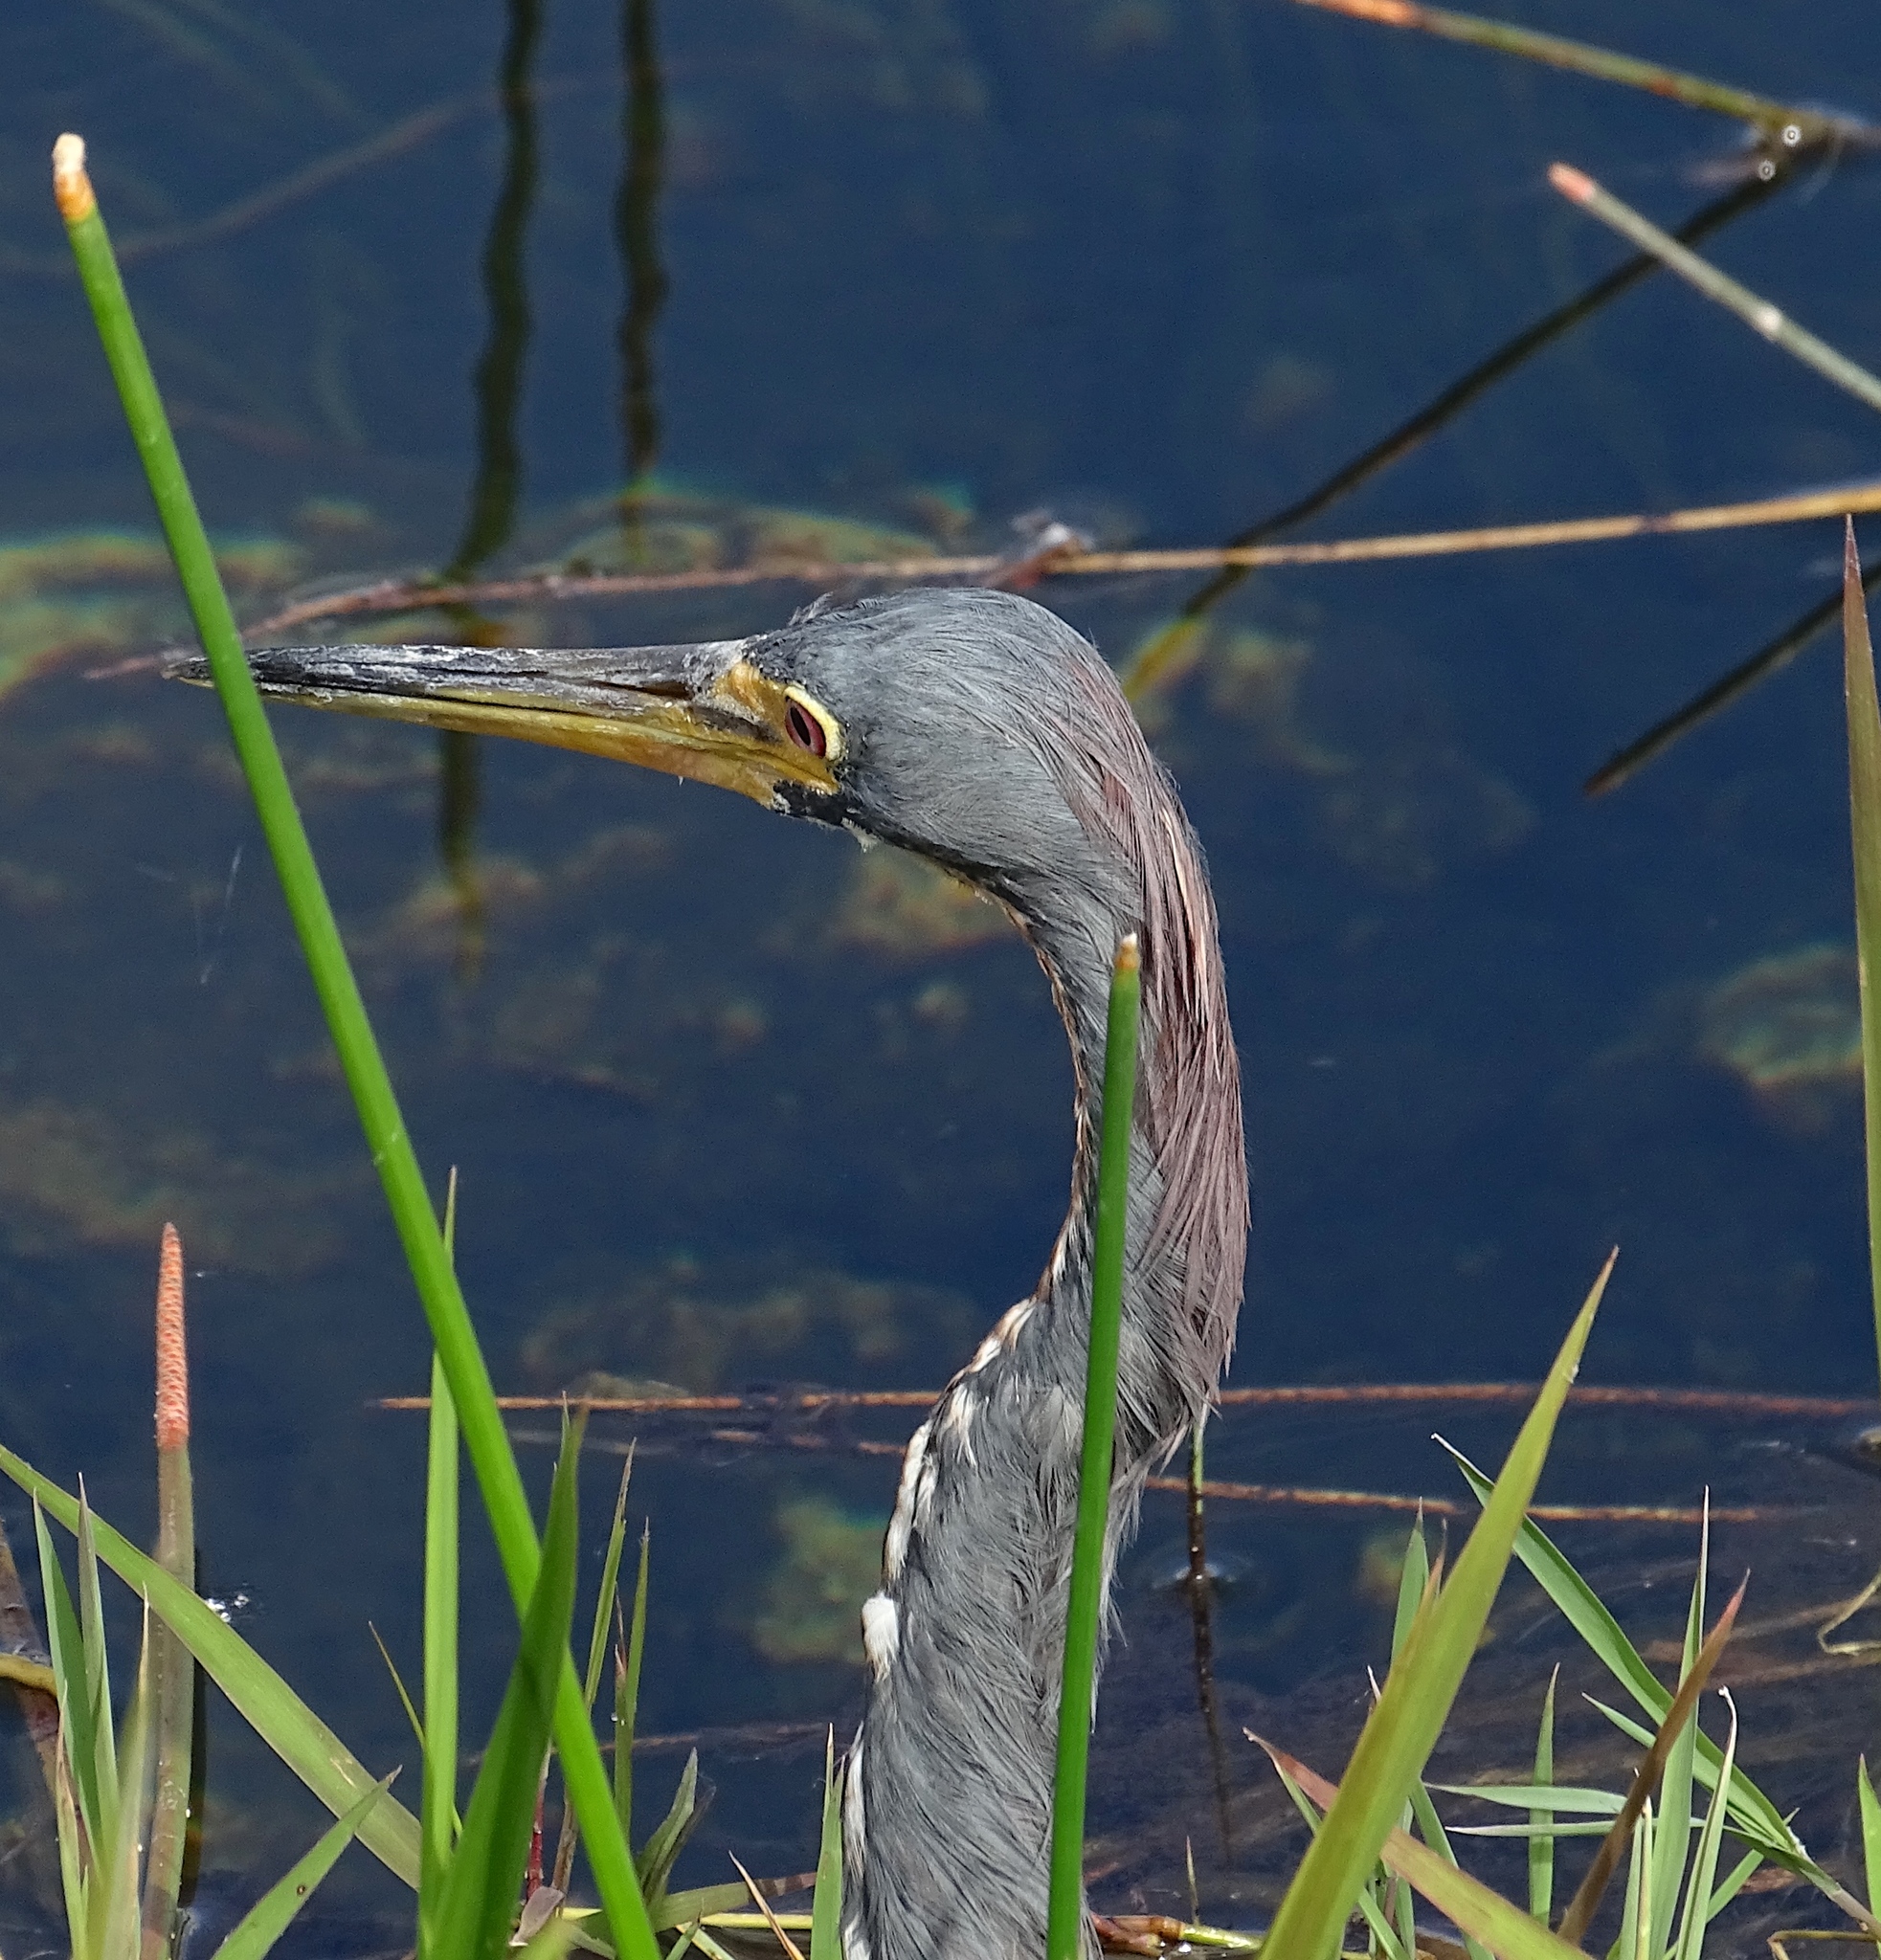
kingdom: Animalia
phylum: Chordata
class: Aves
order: Pelecaniformes
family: Ardeidae
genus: Egretta
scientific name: Egretta tricolor
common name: Tricolored heron
